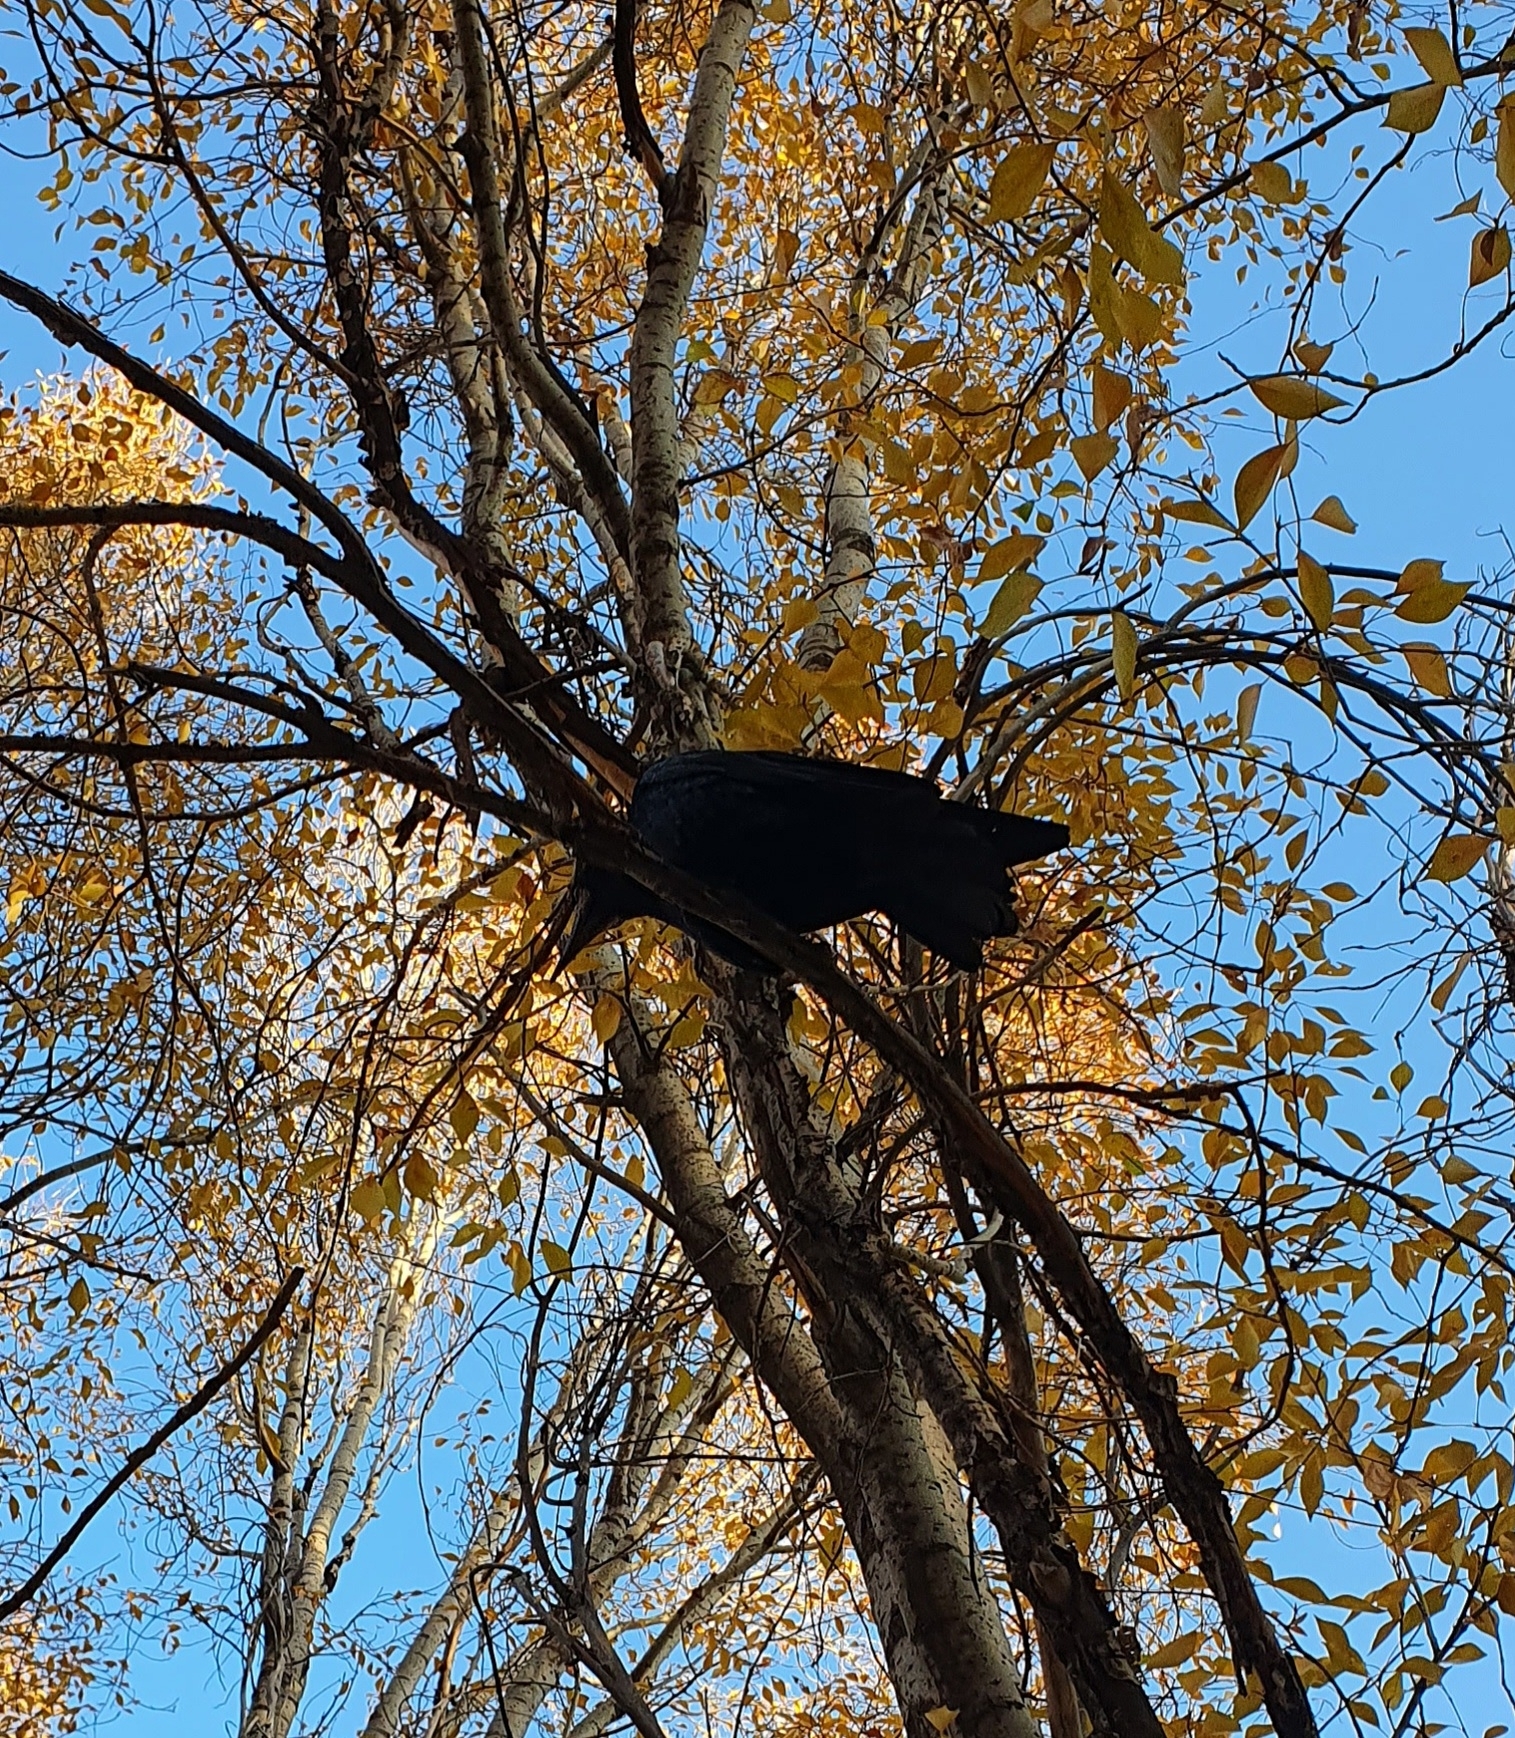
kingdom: Animalia
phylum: Chordata
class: Aves
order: Passeriformes
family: Corvidae
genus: Corvus
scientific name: Corvus frugilegus
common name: Rook
